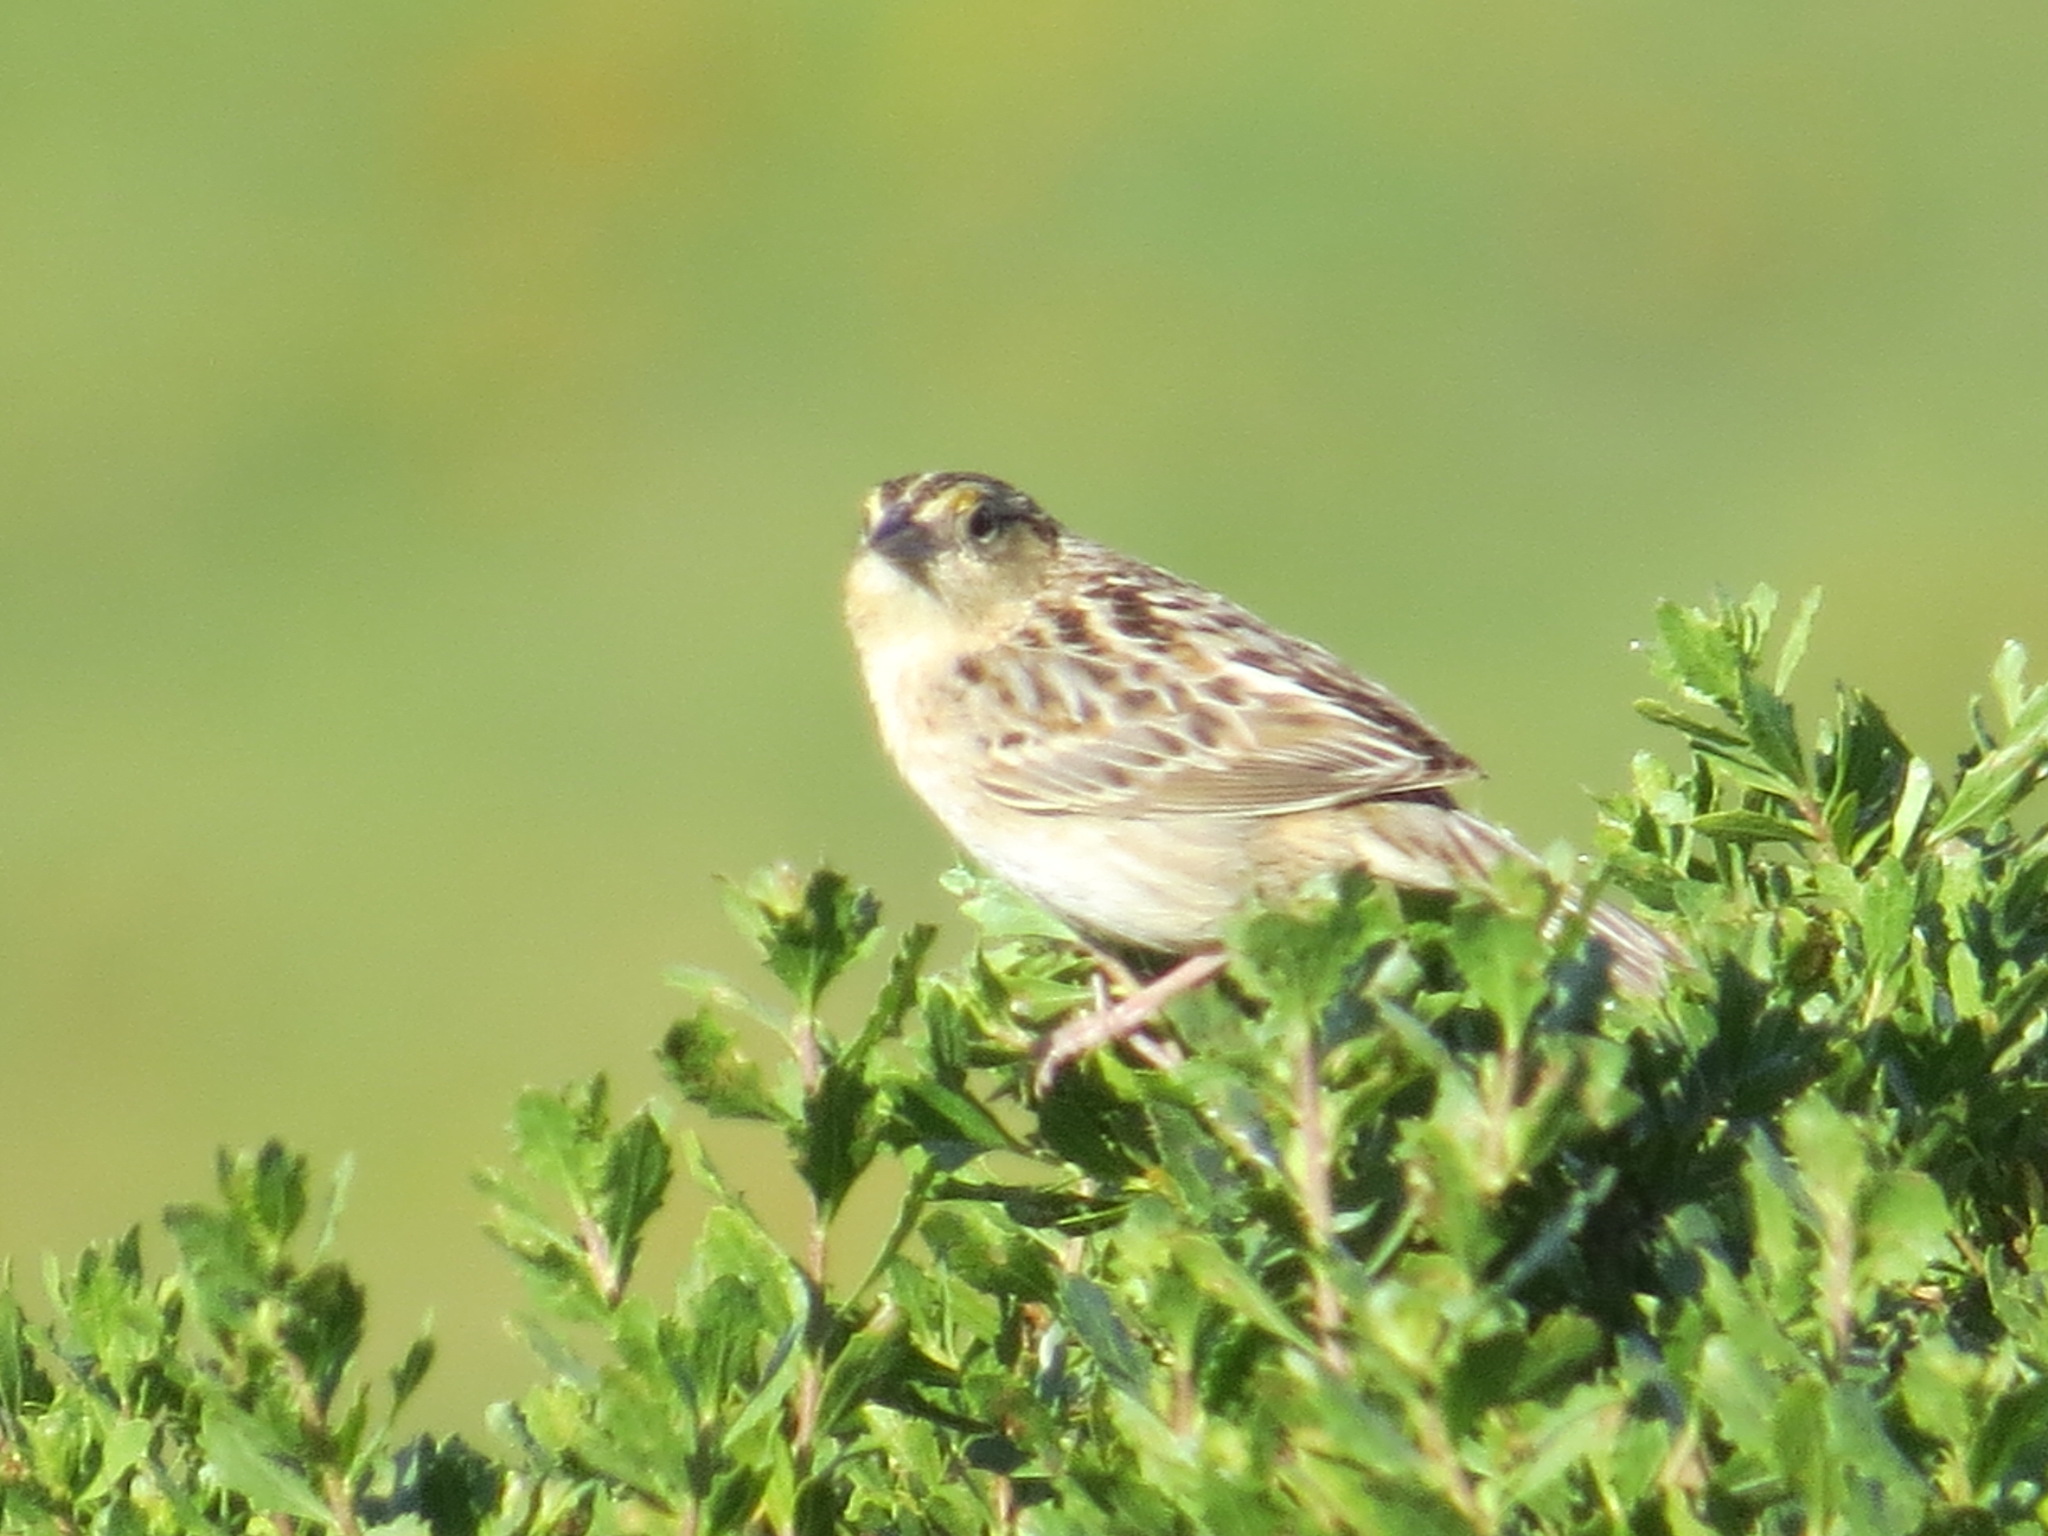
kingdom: Animalia
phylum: Chordata
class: Aves
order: Passeriformes
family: Passerellidae
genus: Ammodramus
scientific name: Ammodramus savannarum
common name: Grasshopper sparrow
